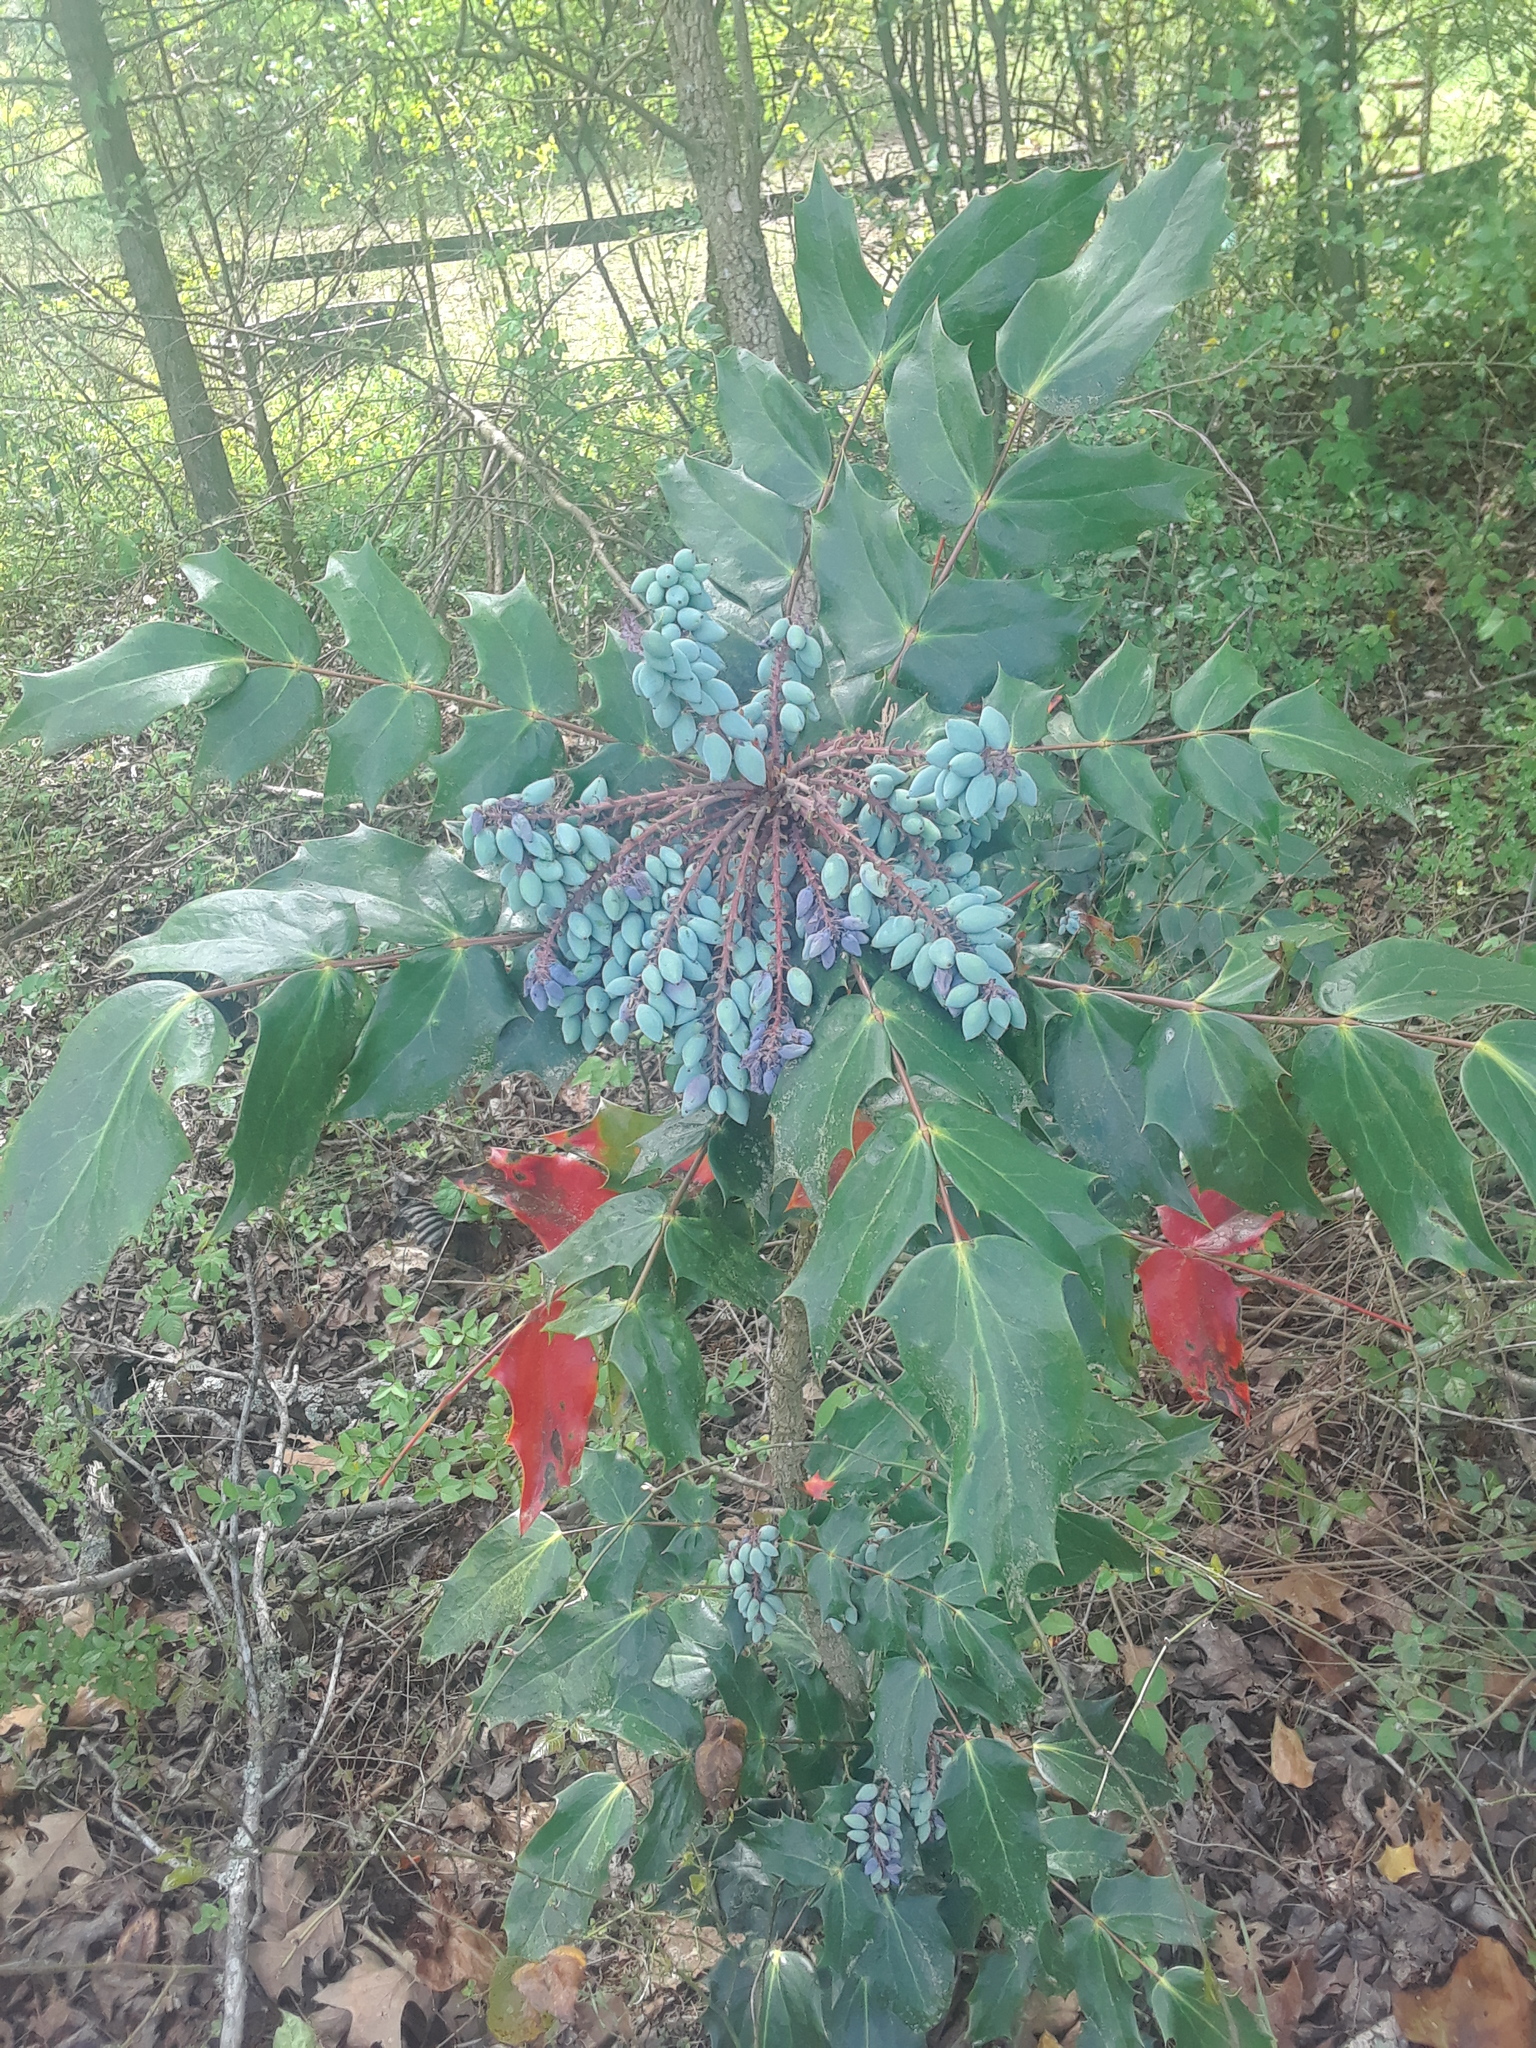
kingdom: Plantae
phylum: Tracheophyta
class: Magnoliopsida
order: Ranunculales
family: Berberidaceae
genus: Mahonia
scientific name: Mahonia bealei
